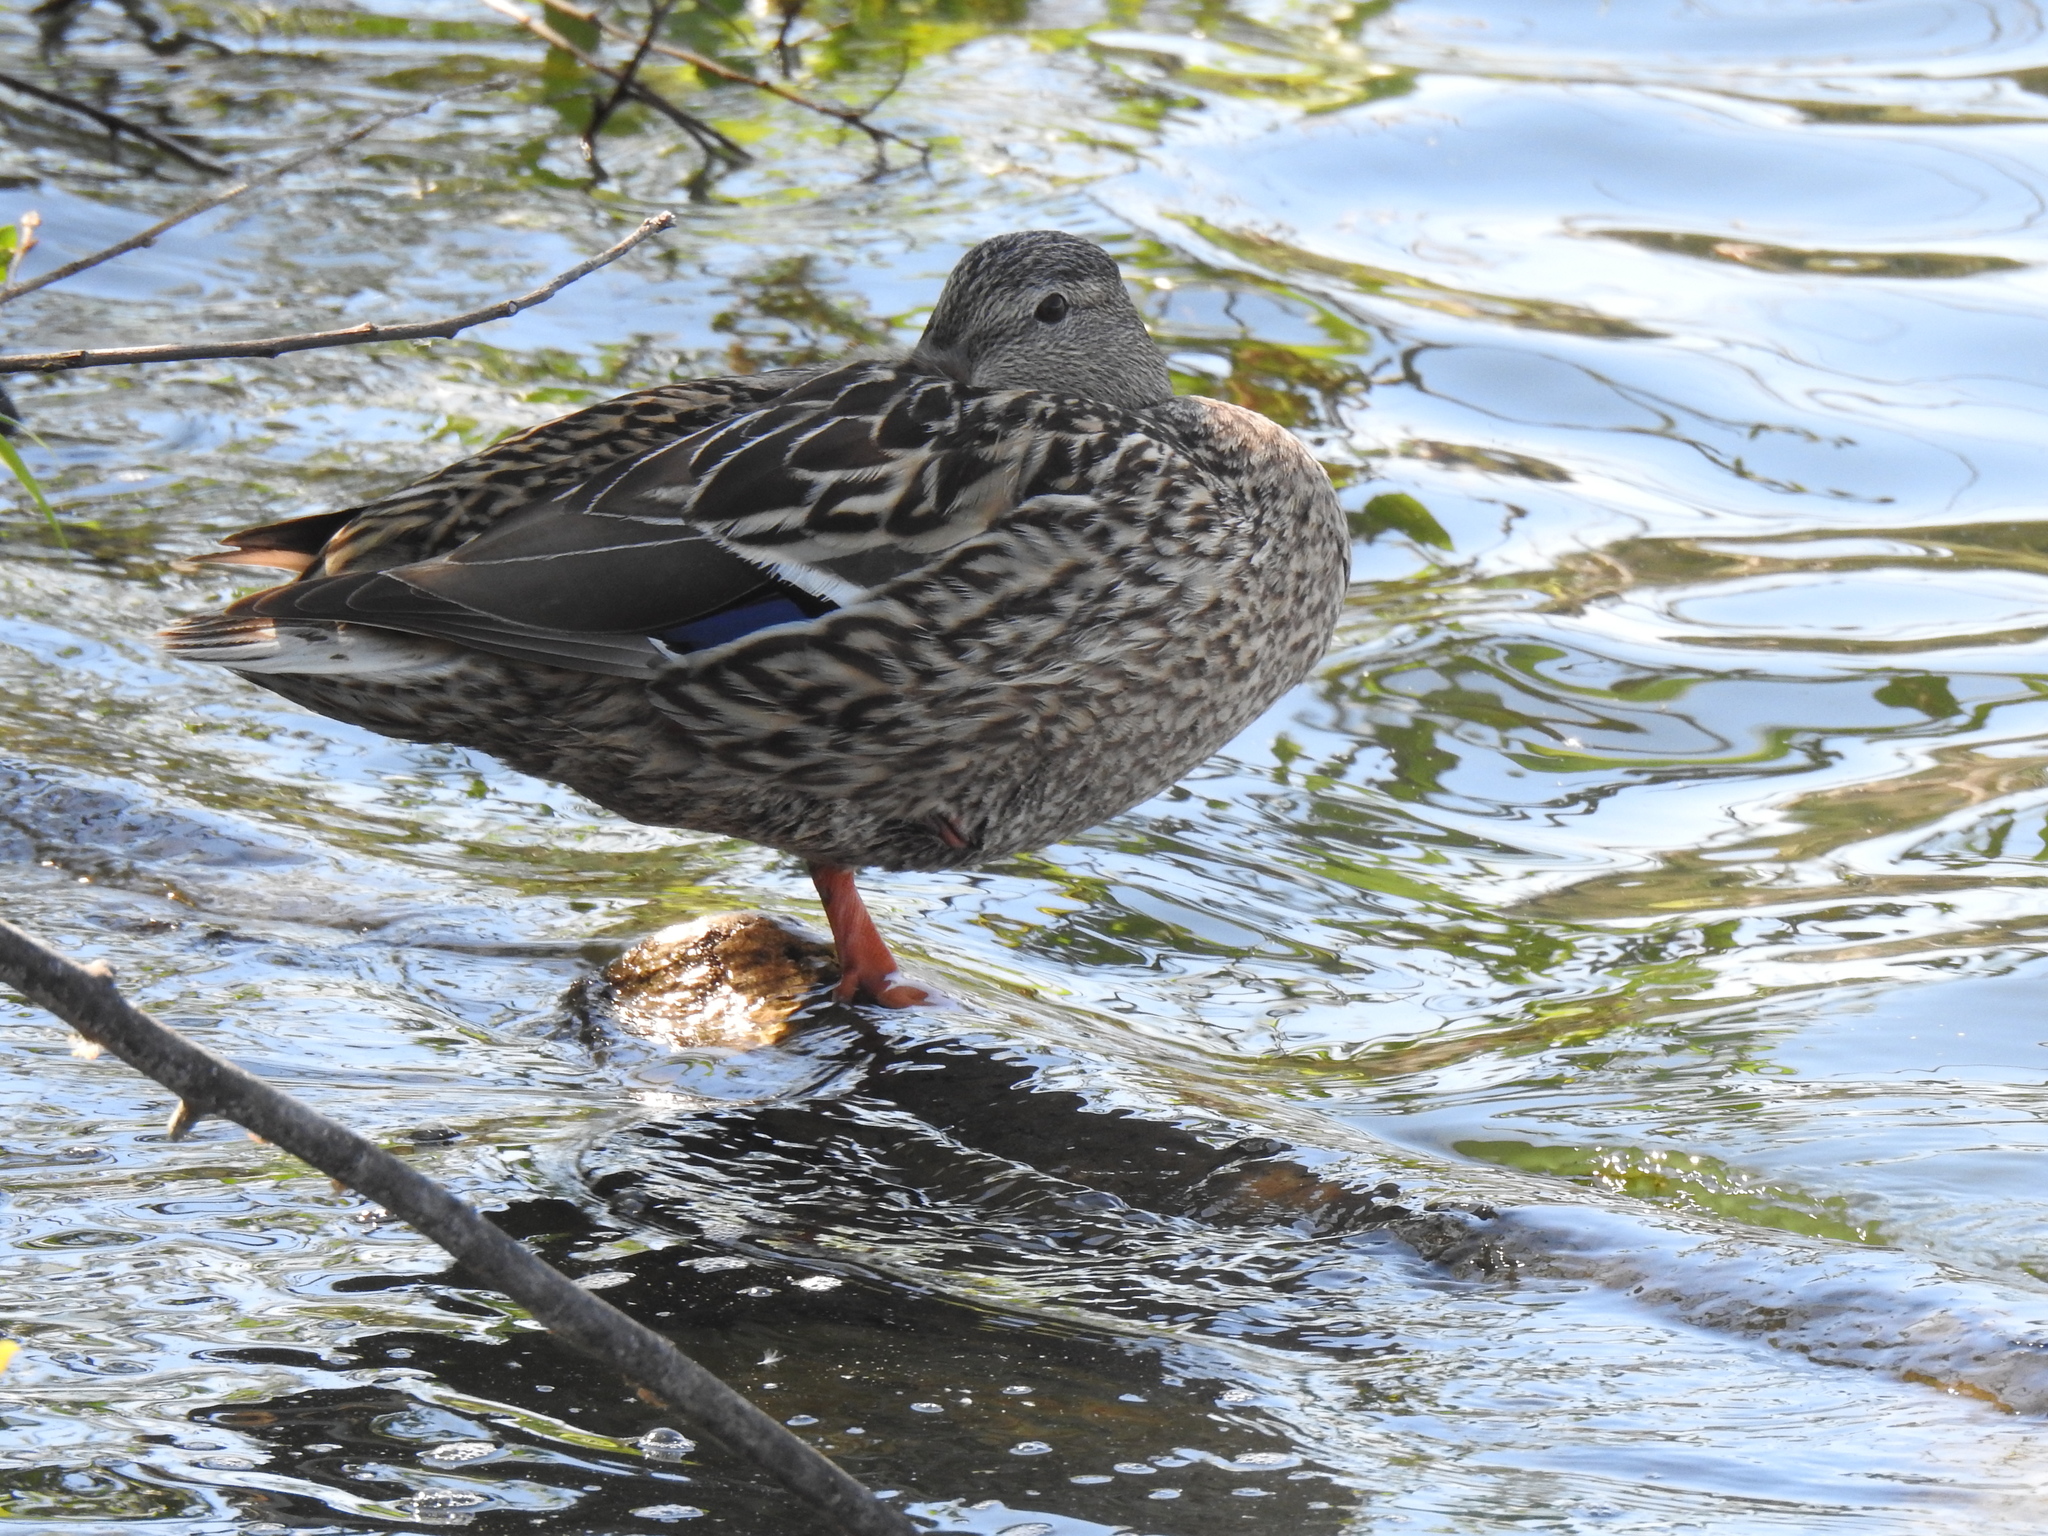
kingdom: Animalia
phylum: Chordata
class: Aves
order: Anseriformes
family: Anatidae
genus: Anas
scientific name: Anas platyrhynchos
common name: Mallard
